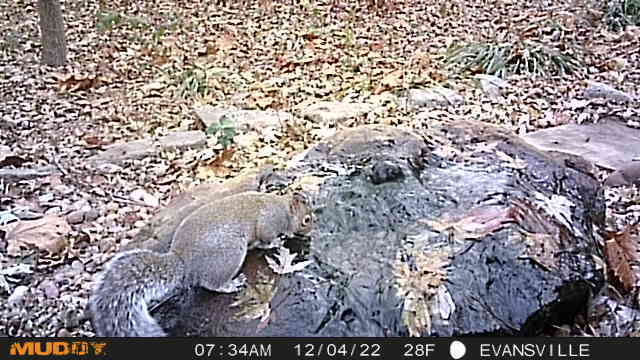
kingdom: Animalia
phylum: Chordata
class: Mammalia
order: Rodentia
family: Sciuridae
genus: Sciurus
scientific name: Sciurus carolinensis
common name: Eastern gray squirrel
